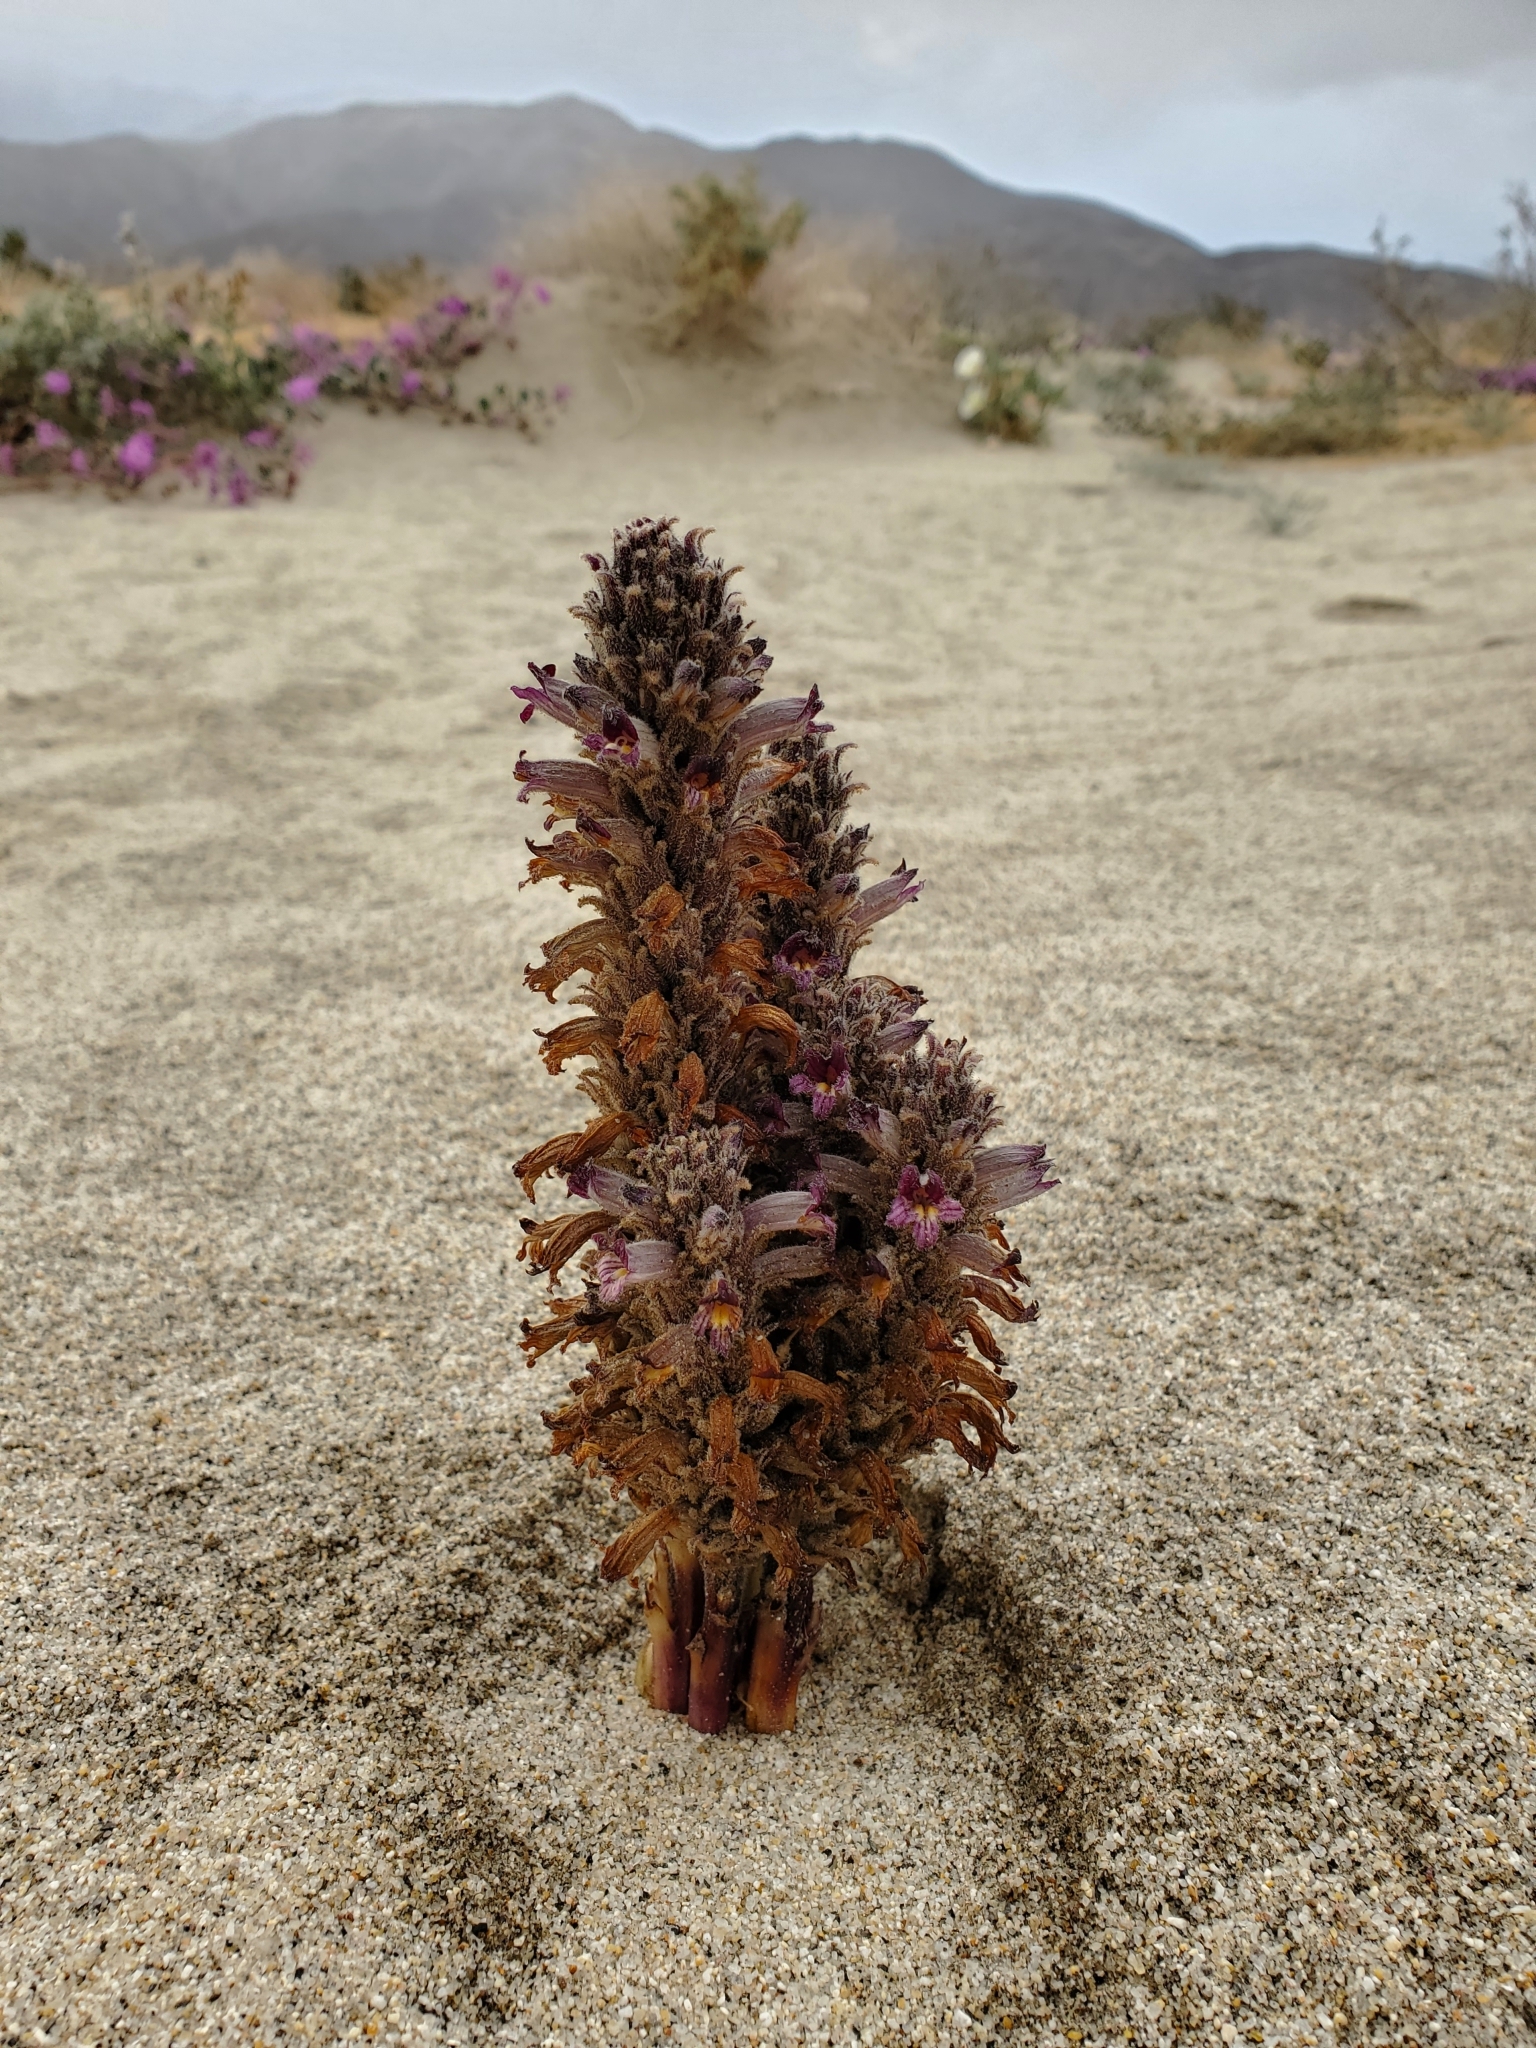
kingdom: Plantae
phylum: Tracheophyta
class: Magnoliopsida
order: Lamiales
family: Orobanchaceae
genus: Aphyllon
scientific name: Aphyllon cooperi
